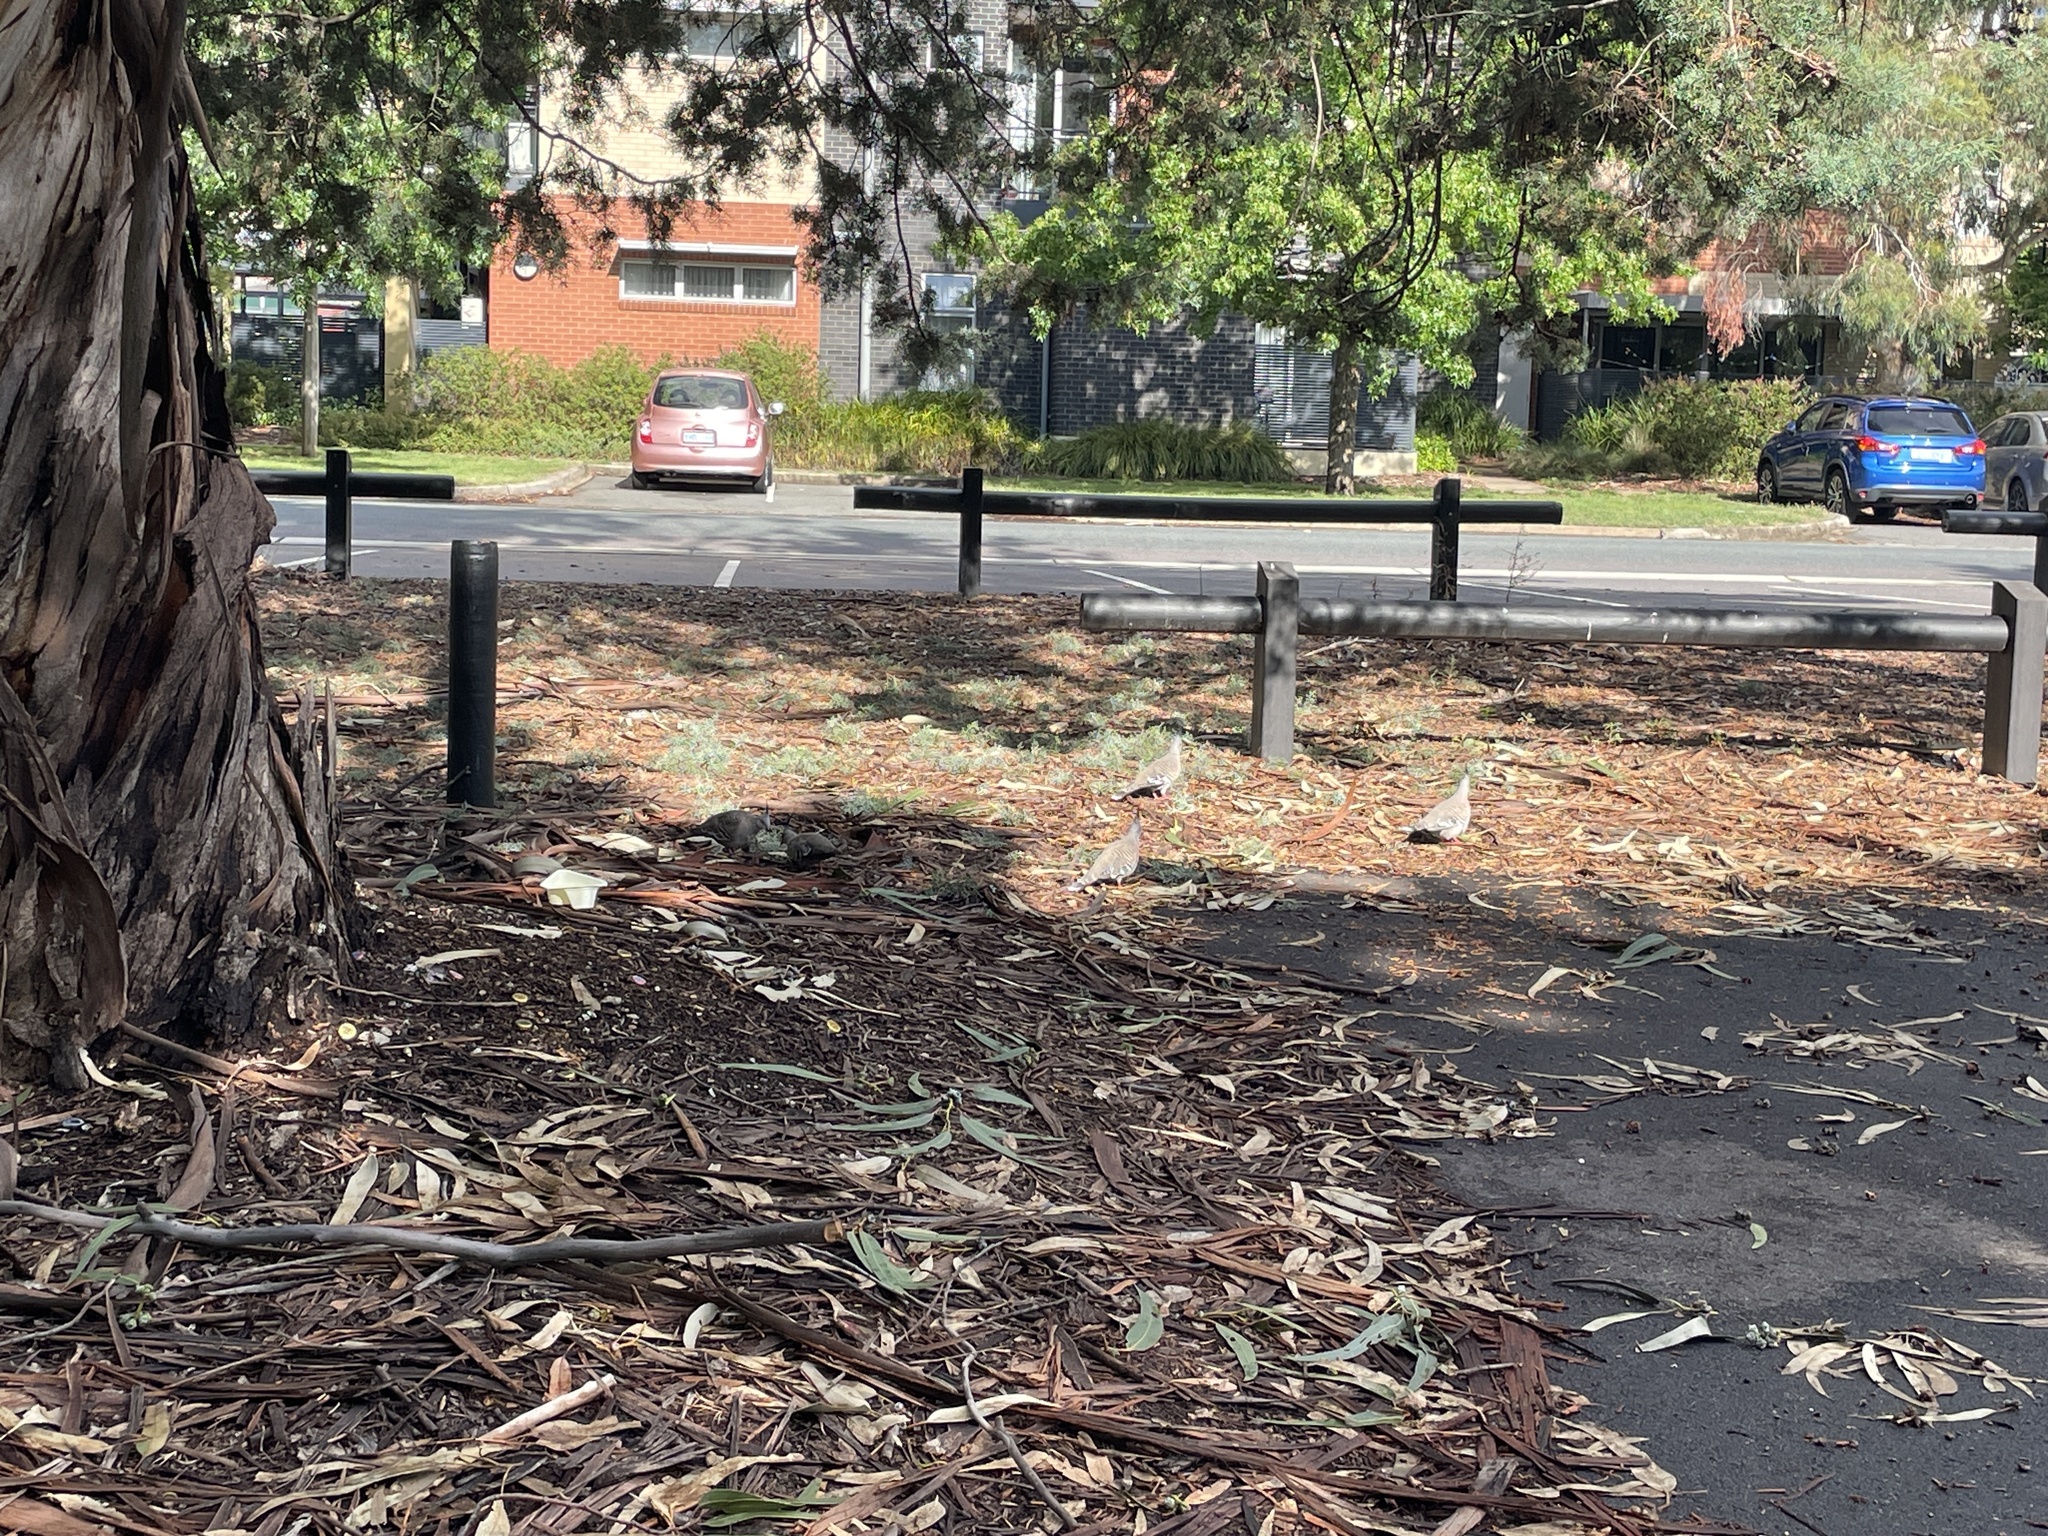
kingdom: Animalia
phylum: Chordata
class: Aves
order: Columbiformes
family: Columbidae
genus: Ocyphaps
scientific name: Ocyphaps lophotes
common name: Crested pigeon
